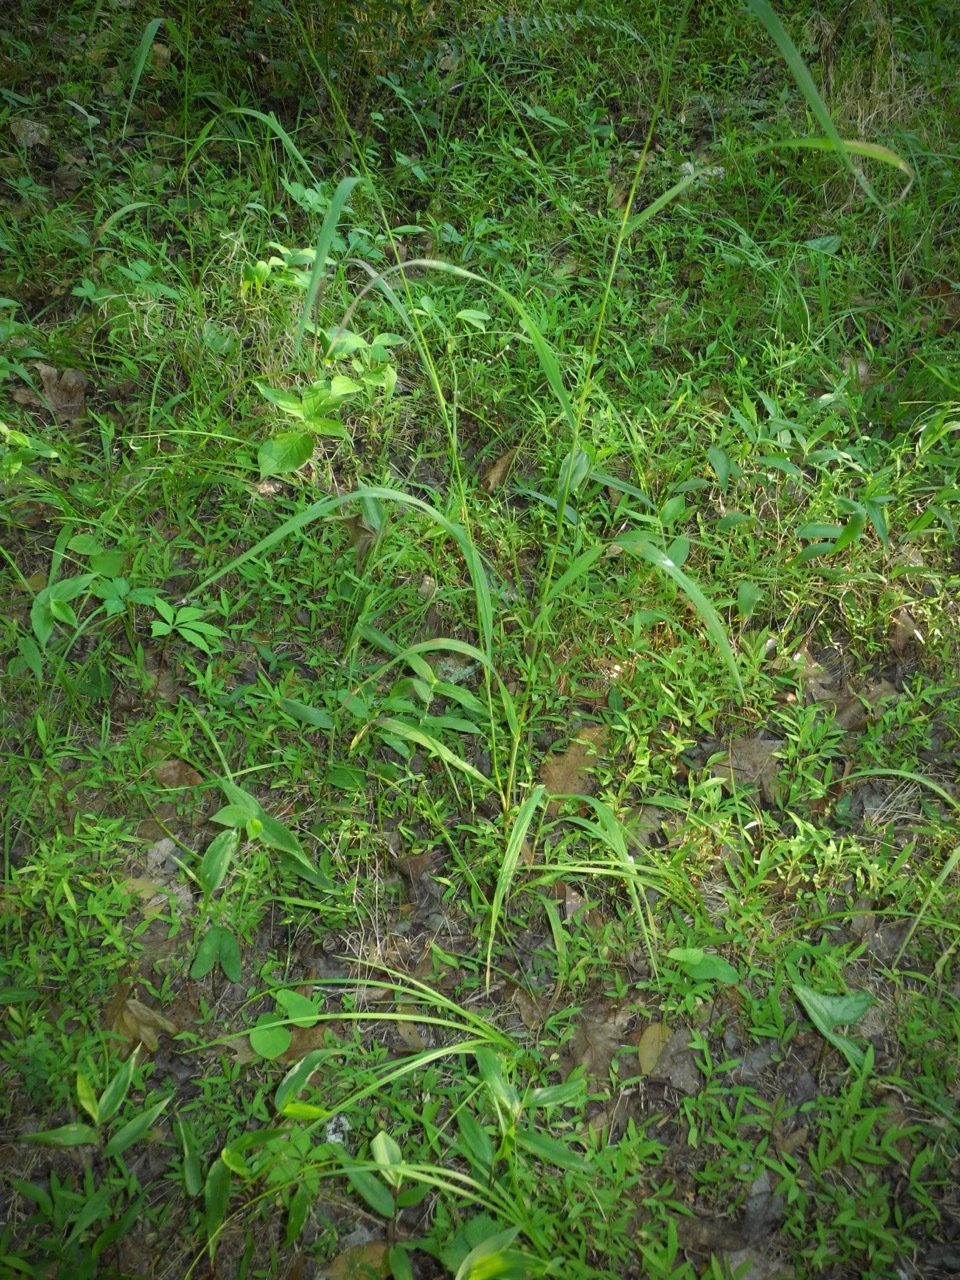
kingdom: Plantae
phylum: Tracheophyta
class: Liliopsida
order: Poales
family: Poaceae
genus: Bromus
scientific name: Bromus pubescens
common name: Hairy wood brome grass
